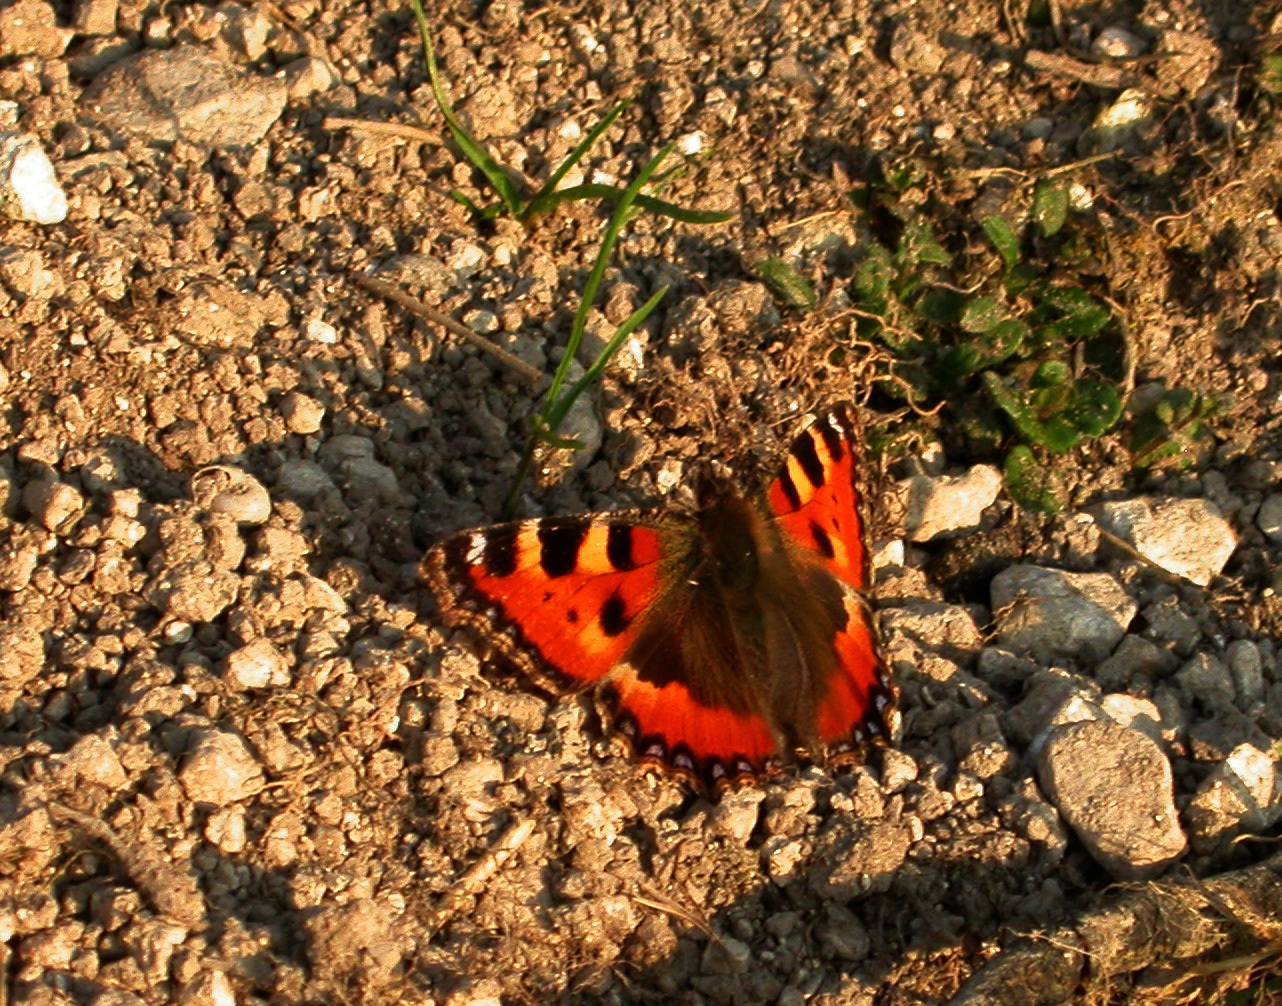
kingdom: Animalia
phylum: Arthropoda
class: Insecta
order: Lepidoptera
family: Nymphalidae
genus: Aglais
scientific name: Aglais urticae
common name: Small tortoiseshell
